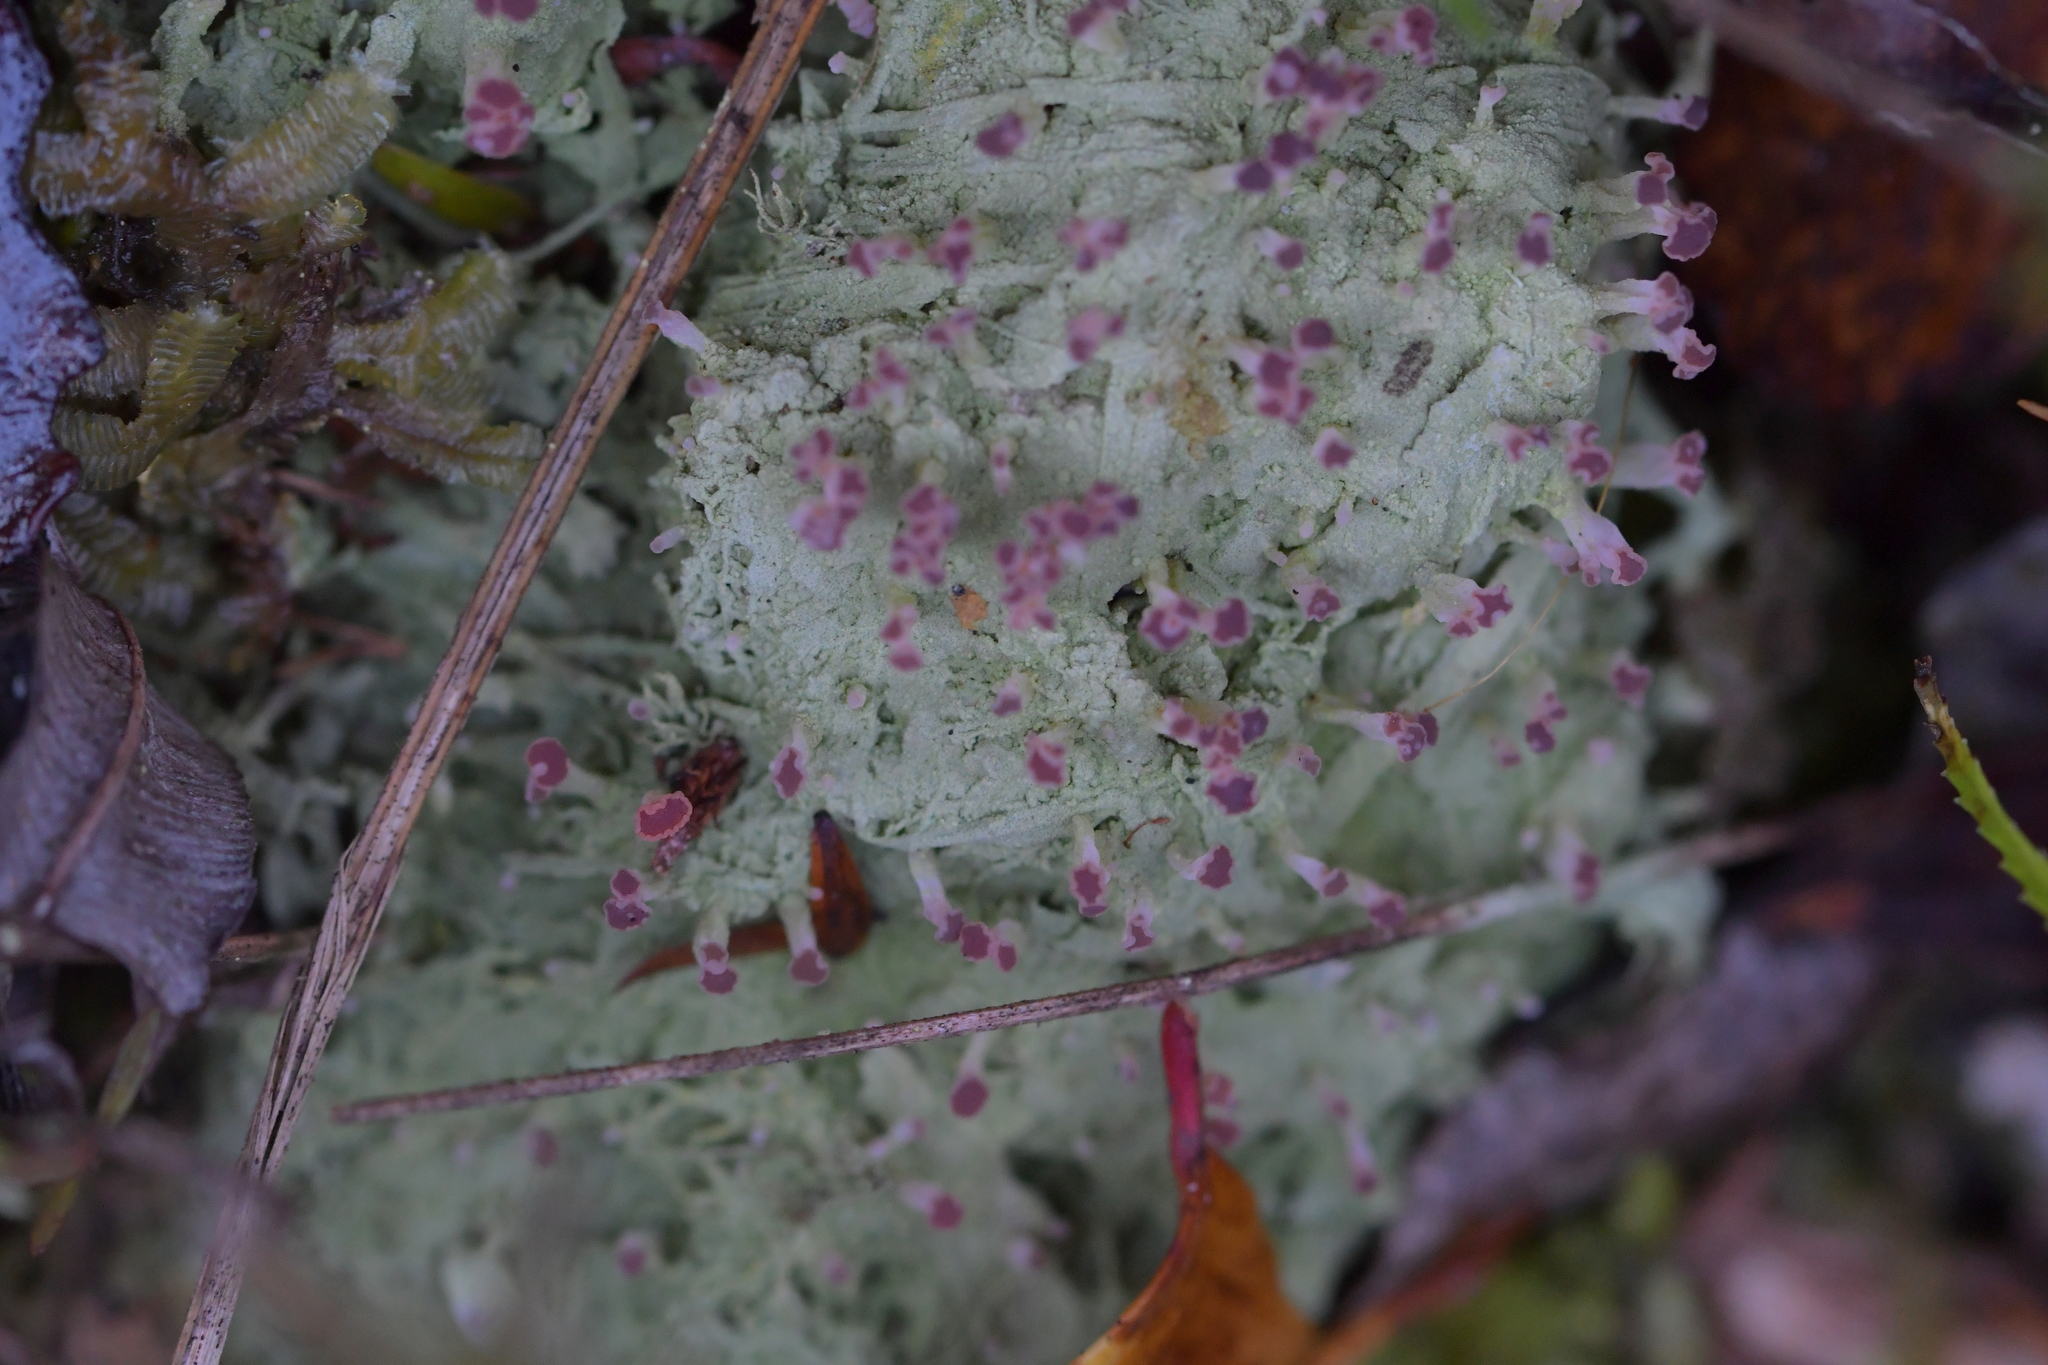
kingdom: Fungi
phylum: Ascomycota
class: Lecanoromycetes
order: Baeomycetales
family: Baeomycetaceae
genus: Baeomyces
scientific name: Baeomyces heteromorphus
